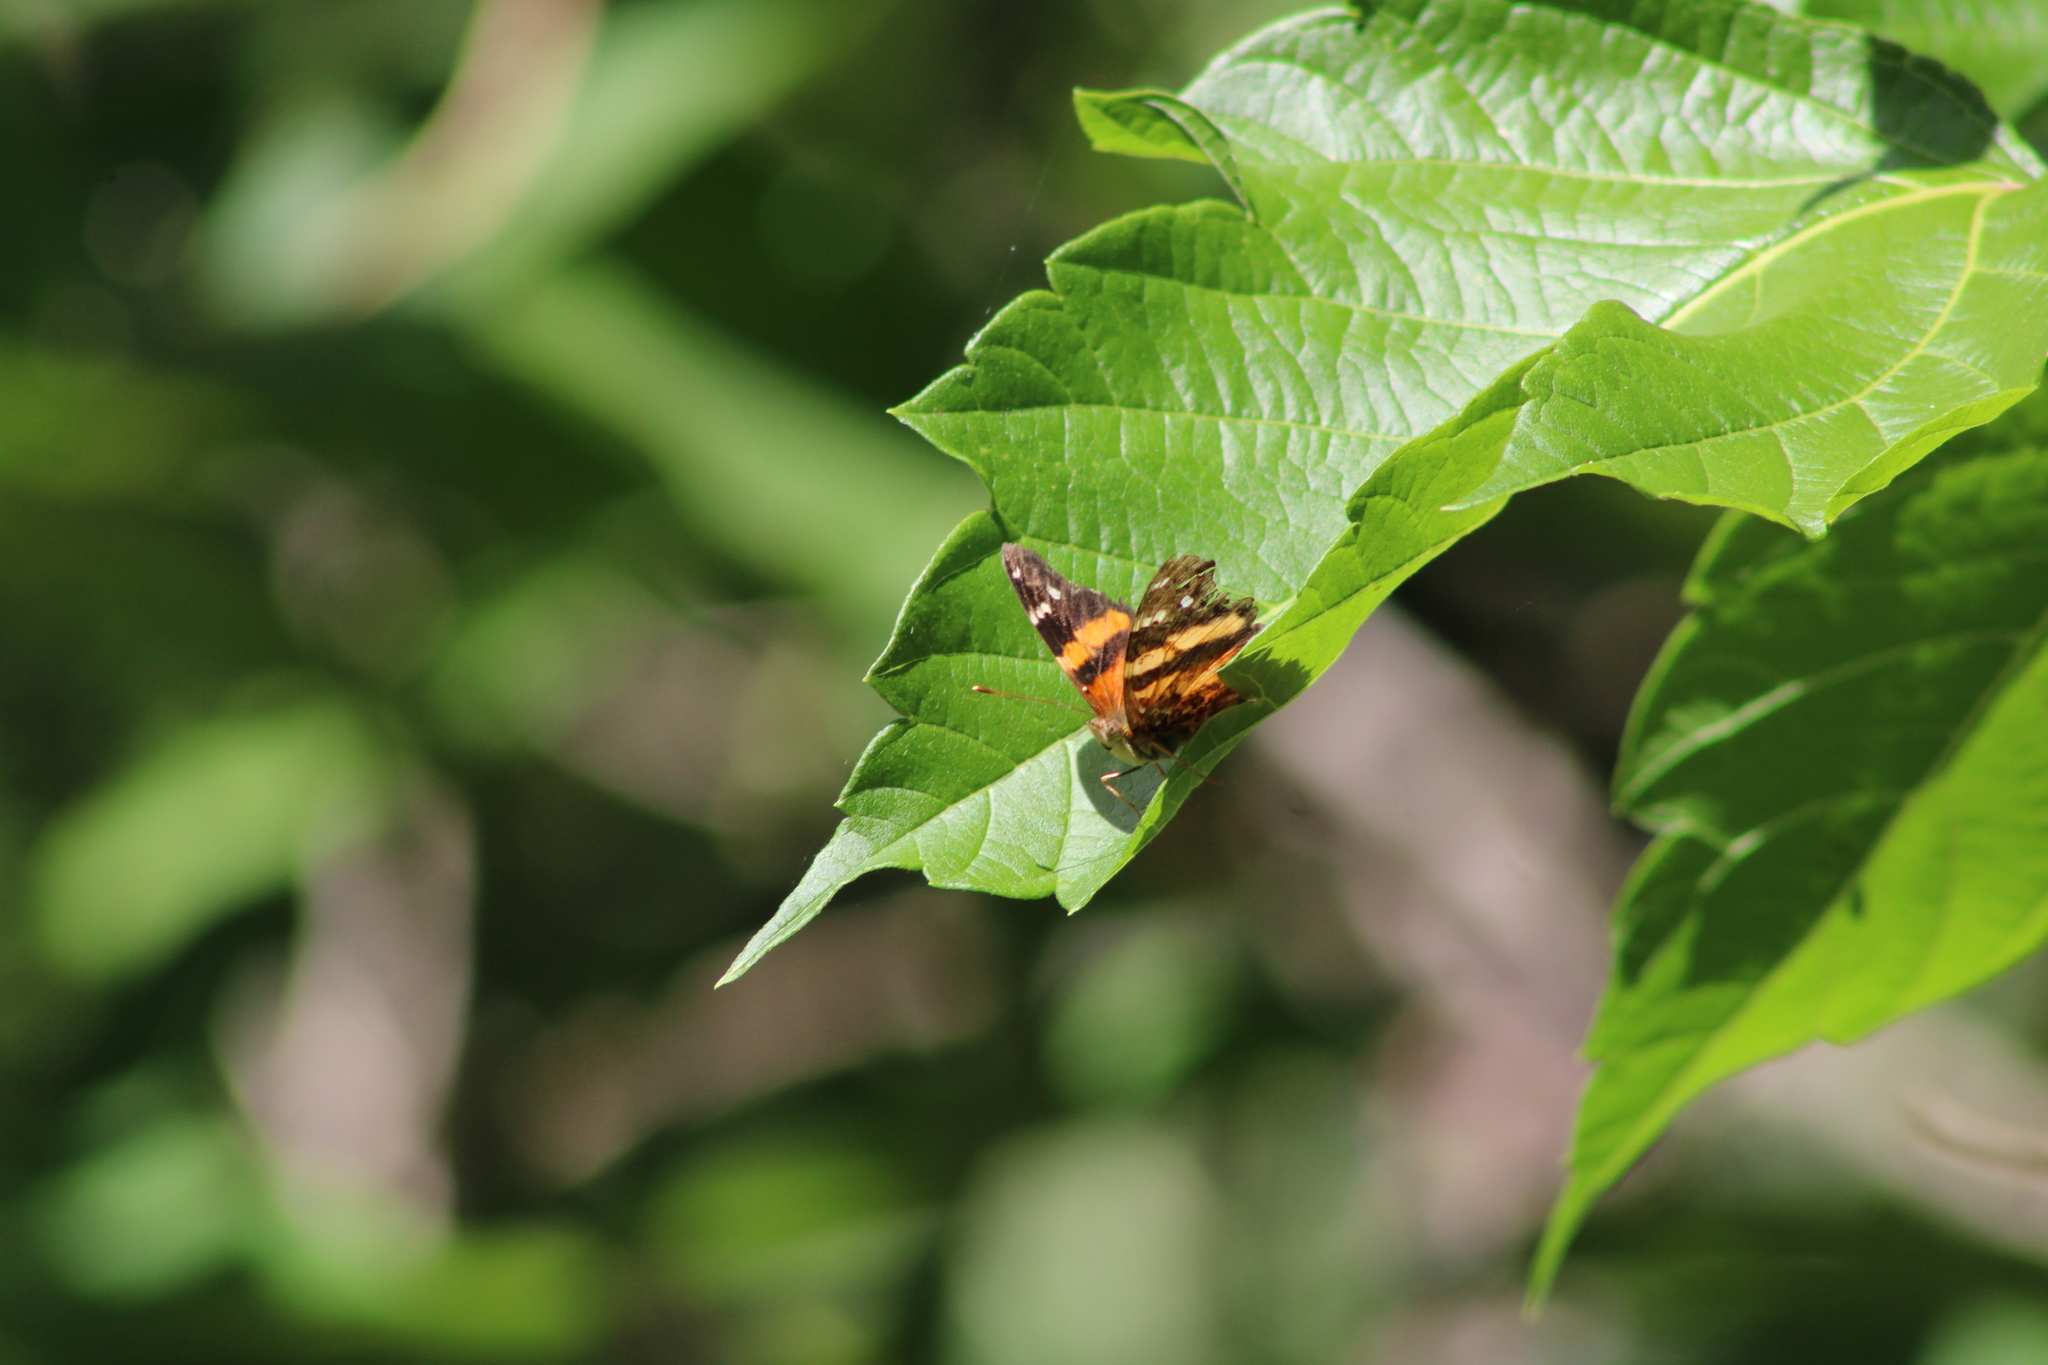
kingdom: Animalia
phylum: Arthropoda
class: Insecta
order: Lepidoptera
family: Nymphalidae
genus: Hypanartia
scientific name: Hypanartia bella
